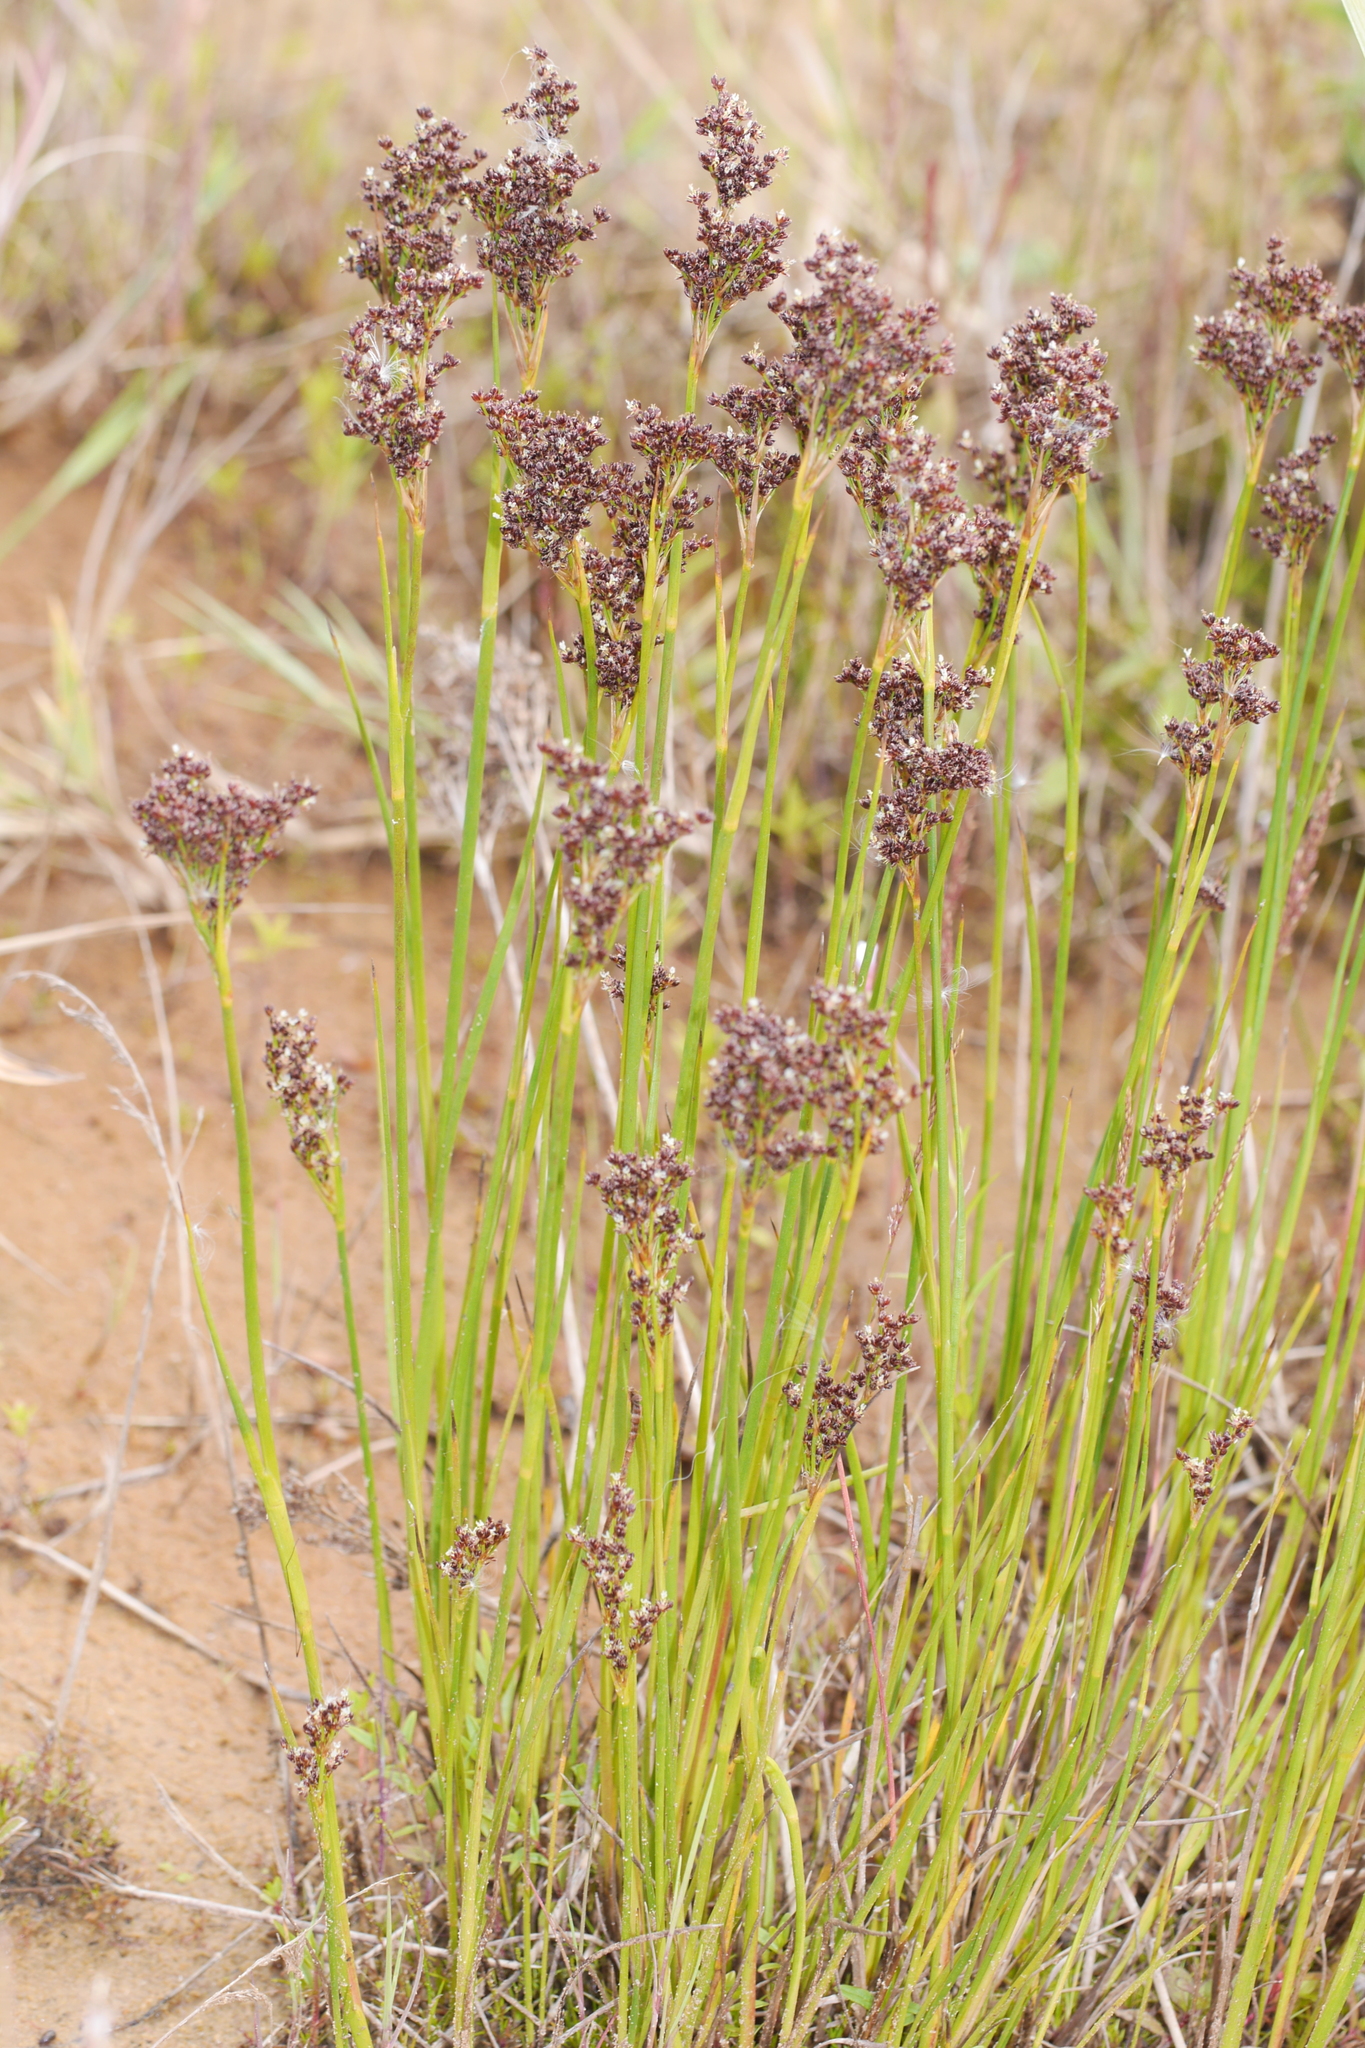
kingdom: Plantae
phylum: Tracheophyta
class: Liliopsida
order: Poales
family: Juncaceae
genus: Juncus
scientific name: Juncus gerardi
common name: Saltmarsh rush
